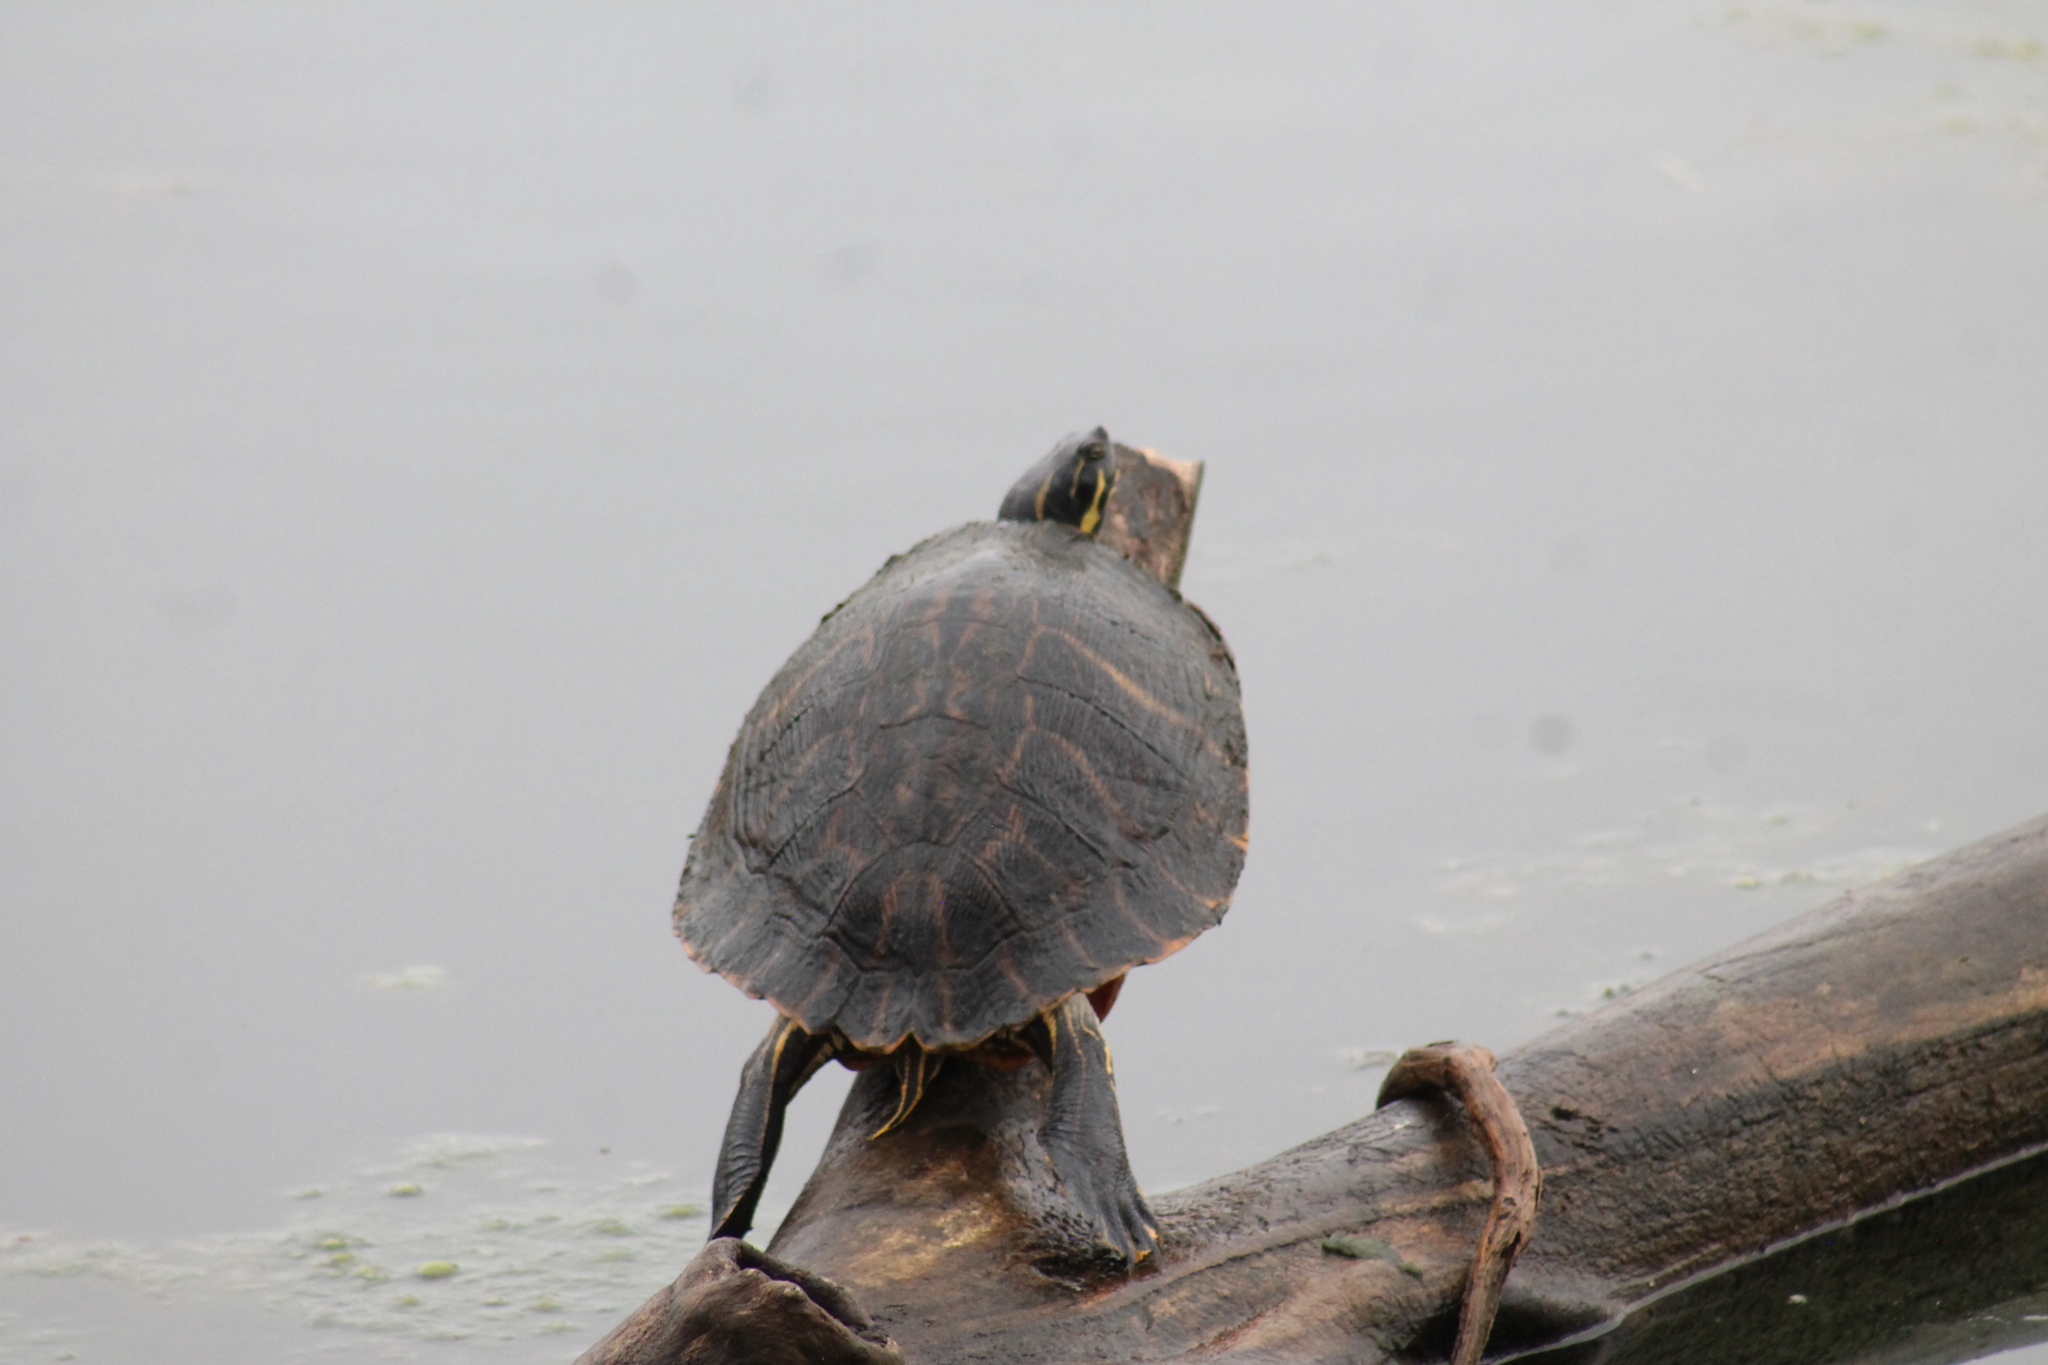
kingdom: Animalia
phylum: Chordata
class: Testudines
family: Emydidae
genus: Pseudemys
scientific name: Pseudemys concinna
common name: Eastern river cooter
